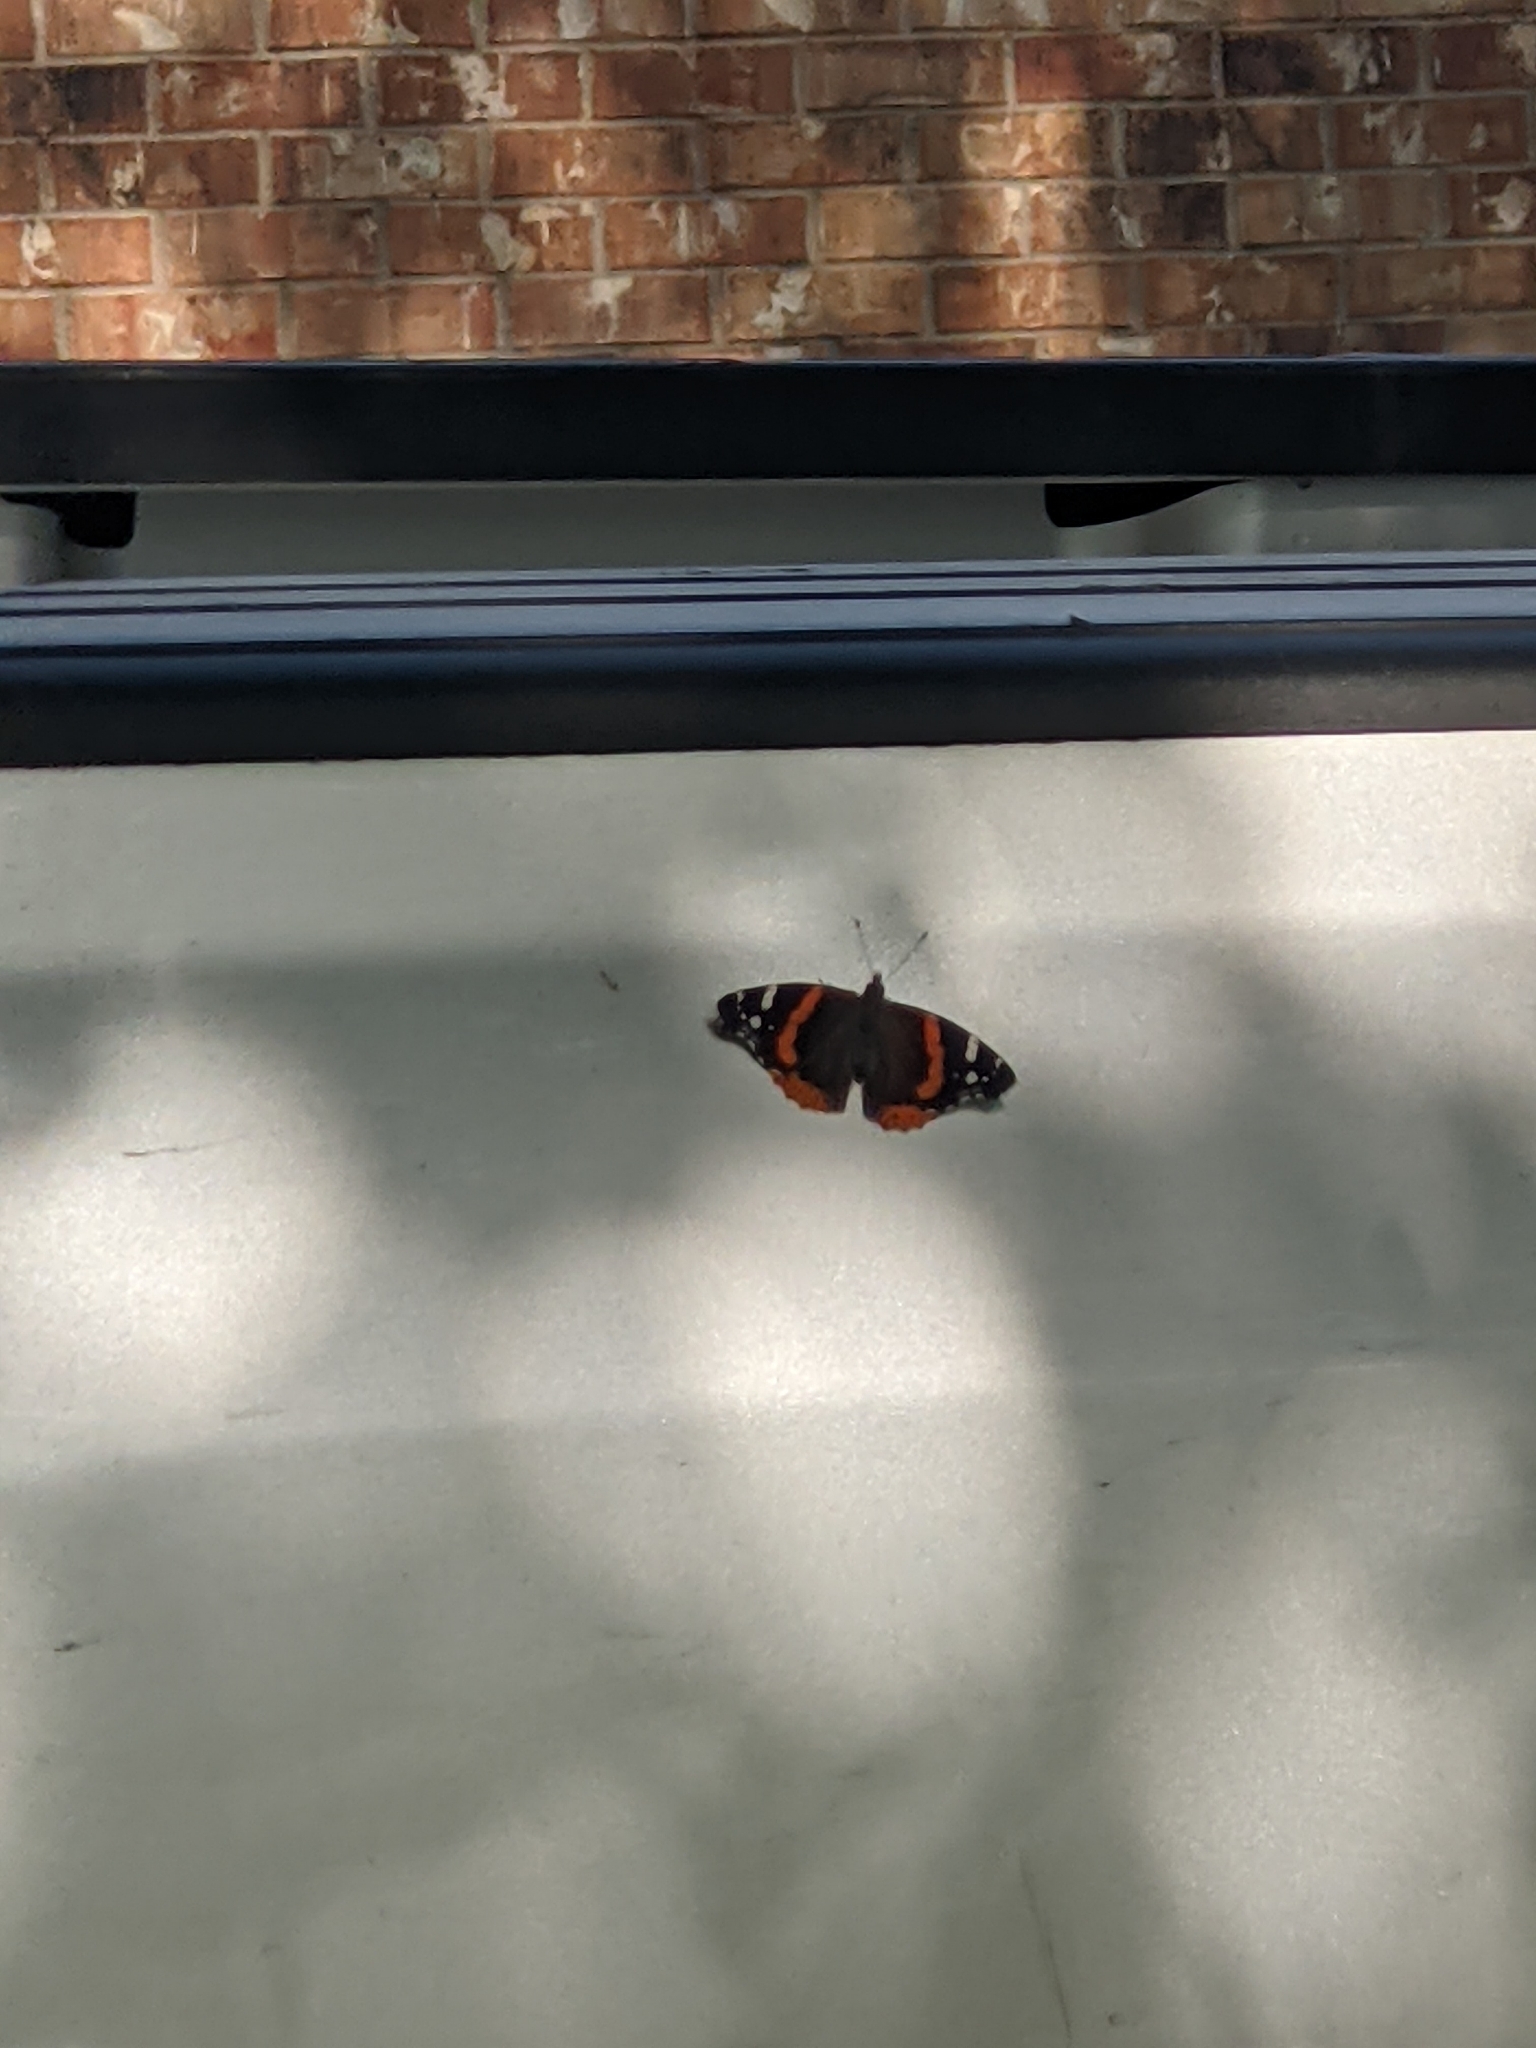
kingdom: Animalia
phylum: Arthropoda
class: Insecta
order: Lepidoptera
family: Nymphalidae
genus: Vanessa
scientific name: Vanessa atalanta
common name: Red admiral
